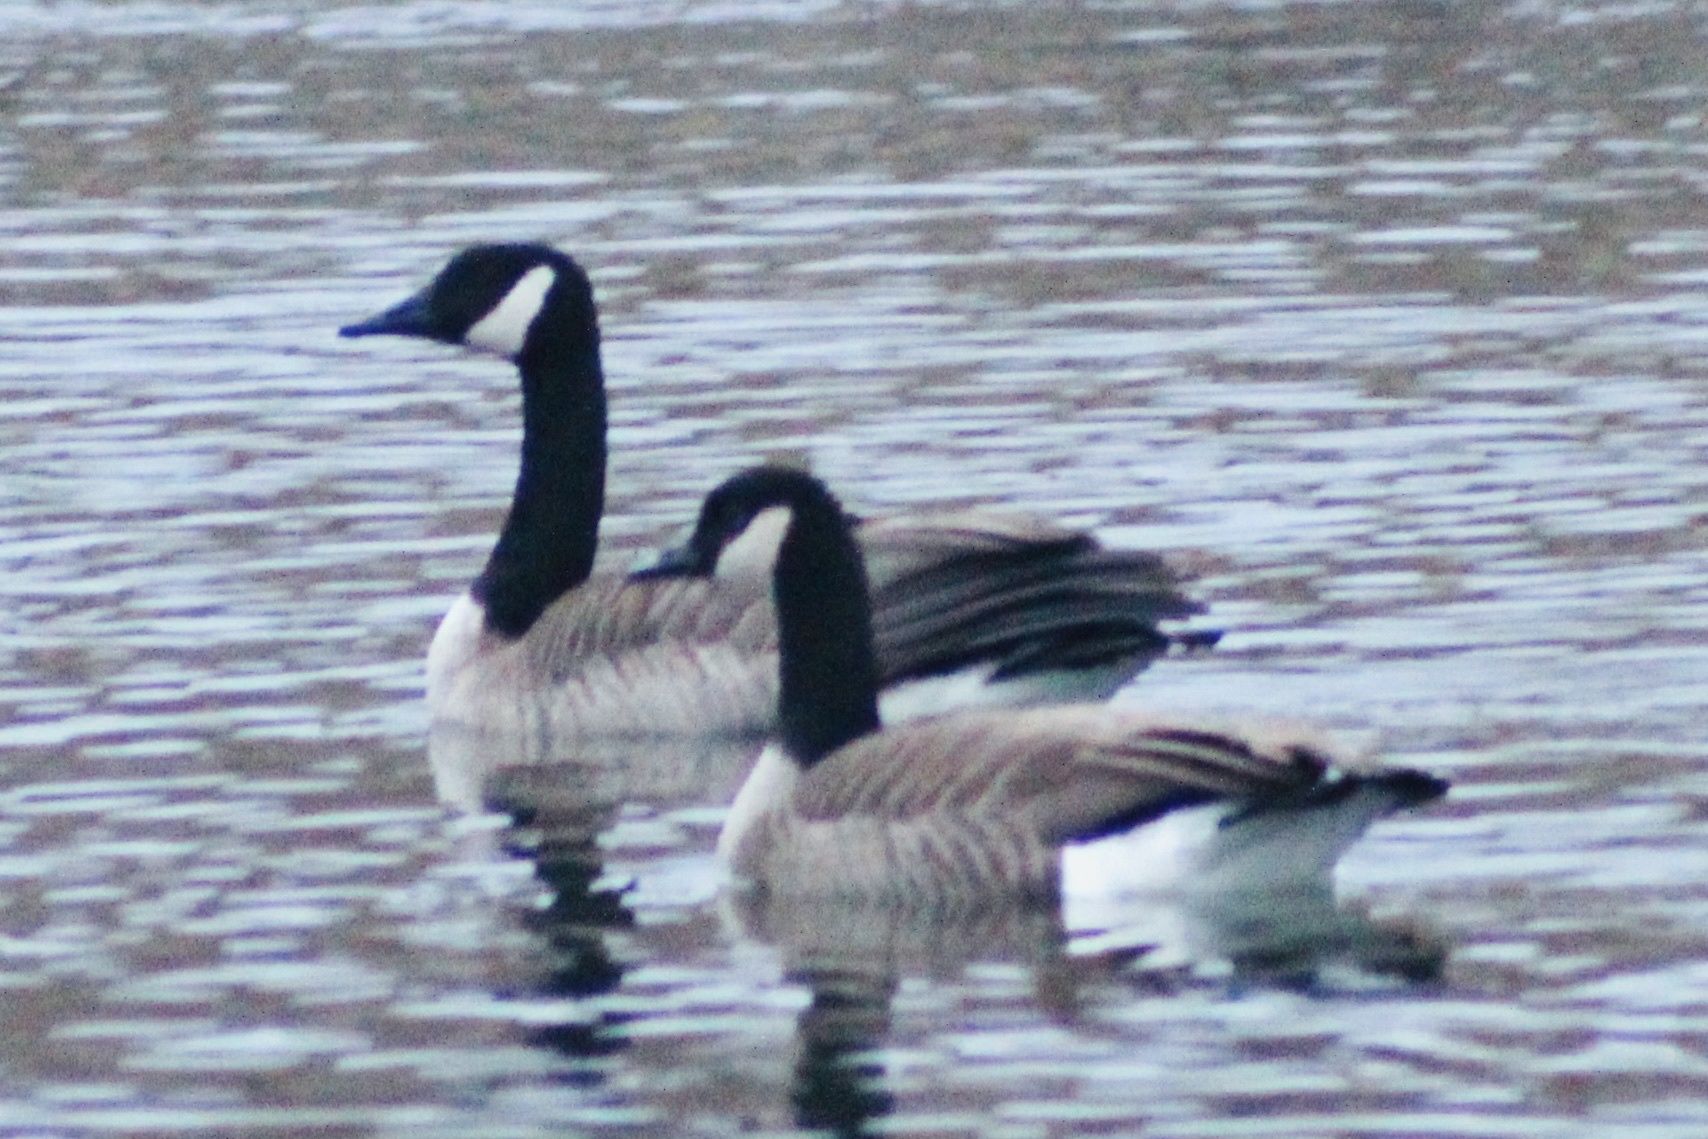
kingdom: Animalia
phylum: Chordata
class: Aves
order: Anseriformes
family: Anatidae
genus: Branta
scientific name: Branta canadensis
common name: Canada goose
